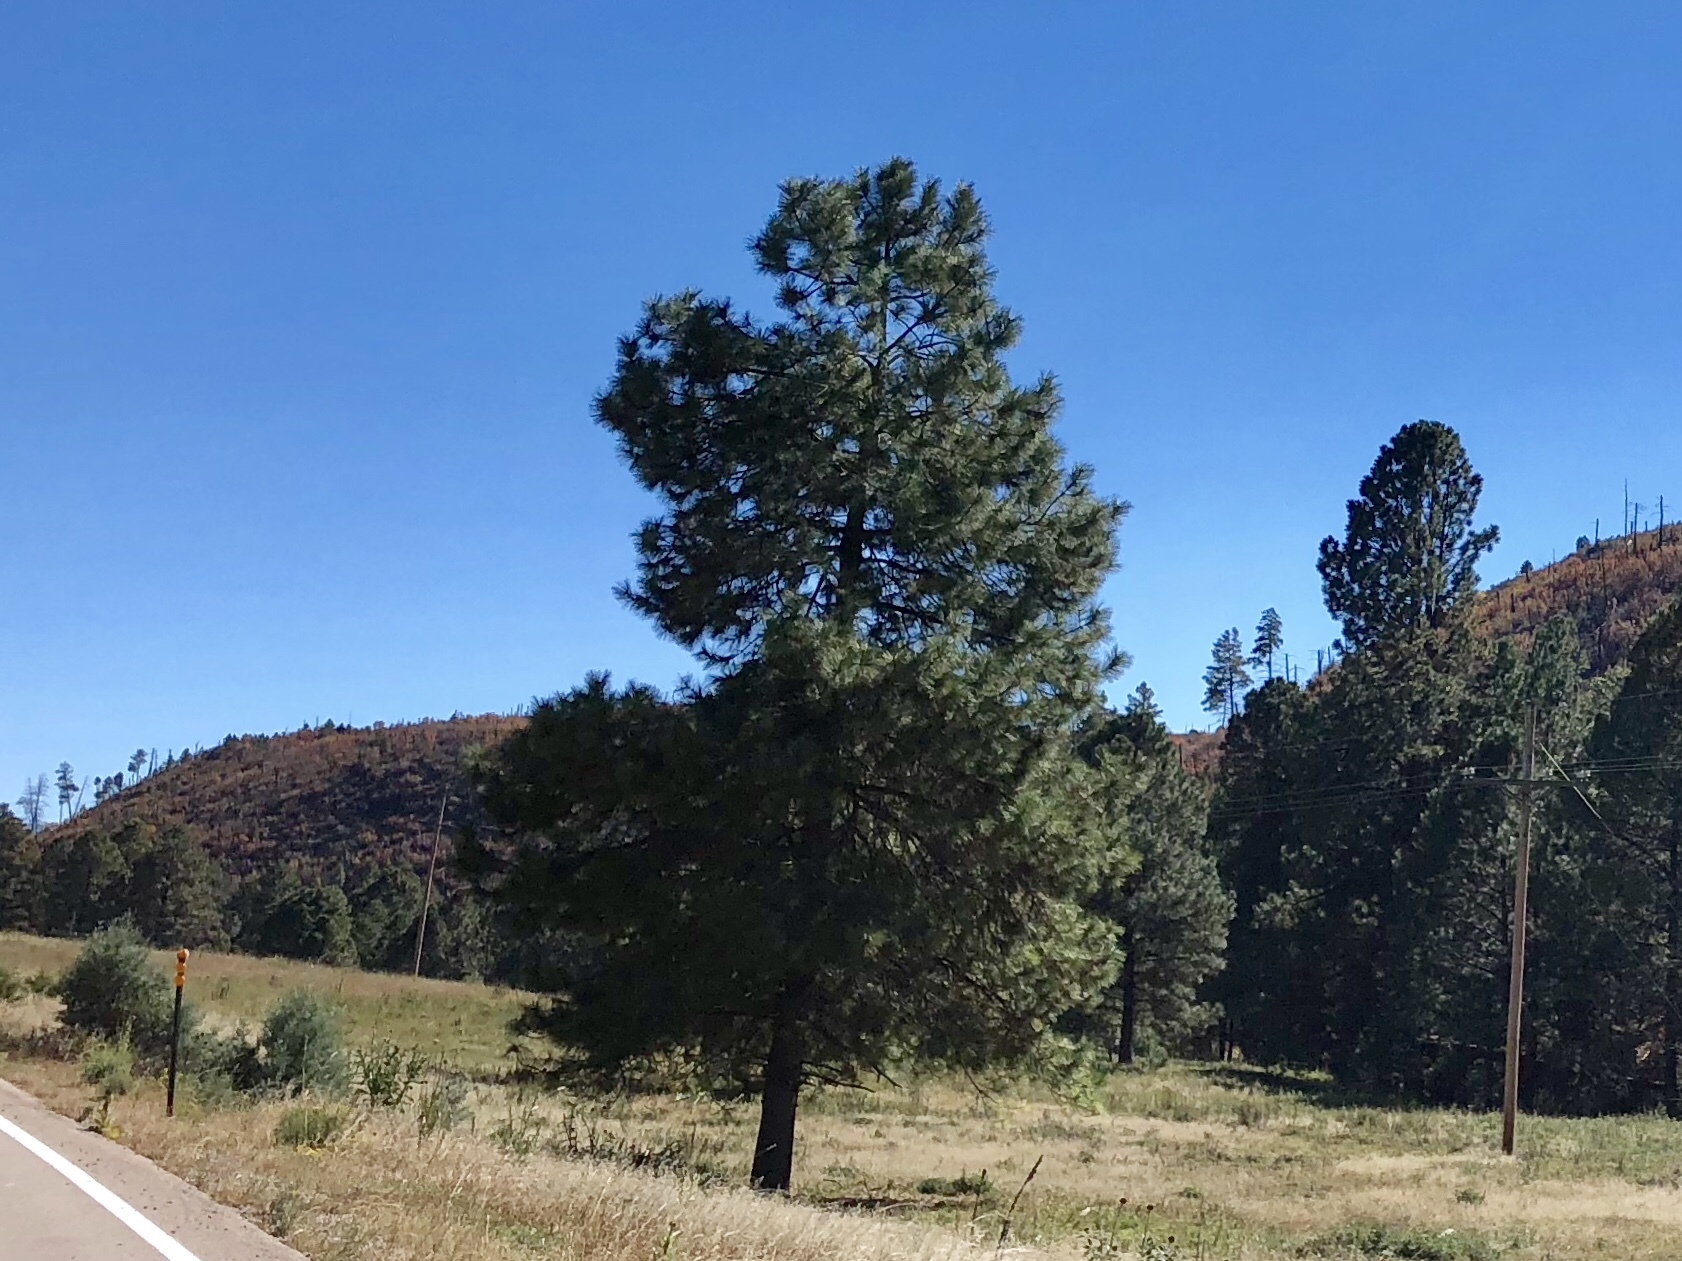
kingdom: Plantae
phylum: Tracheophyta
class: Pinopsida
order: Pinales
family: Pinaceae
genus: Pinus
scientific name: Pinus ponderosa
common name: Western yellow-pine
